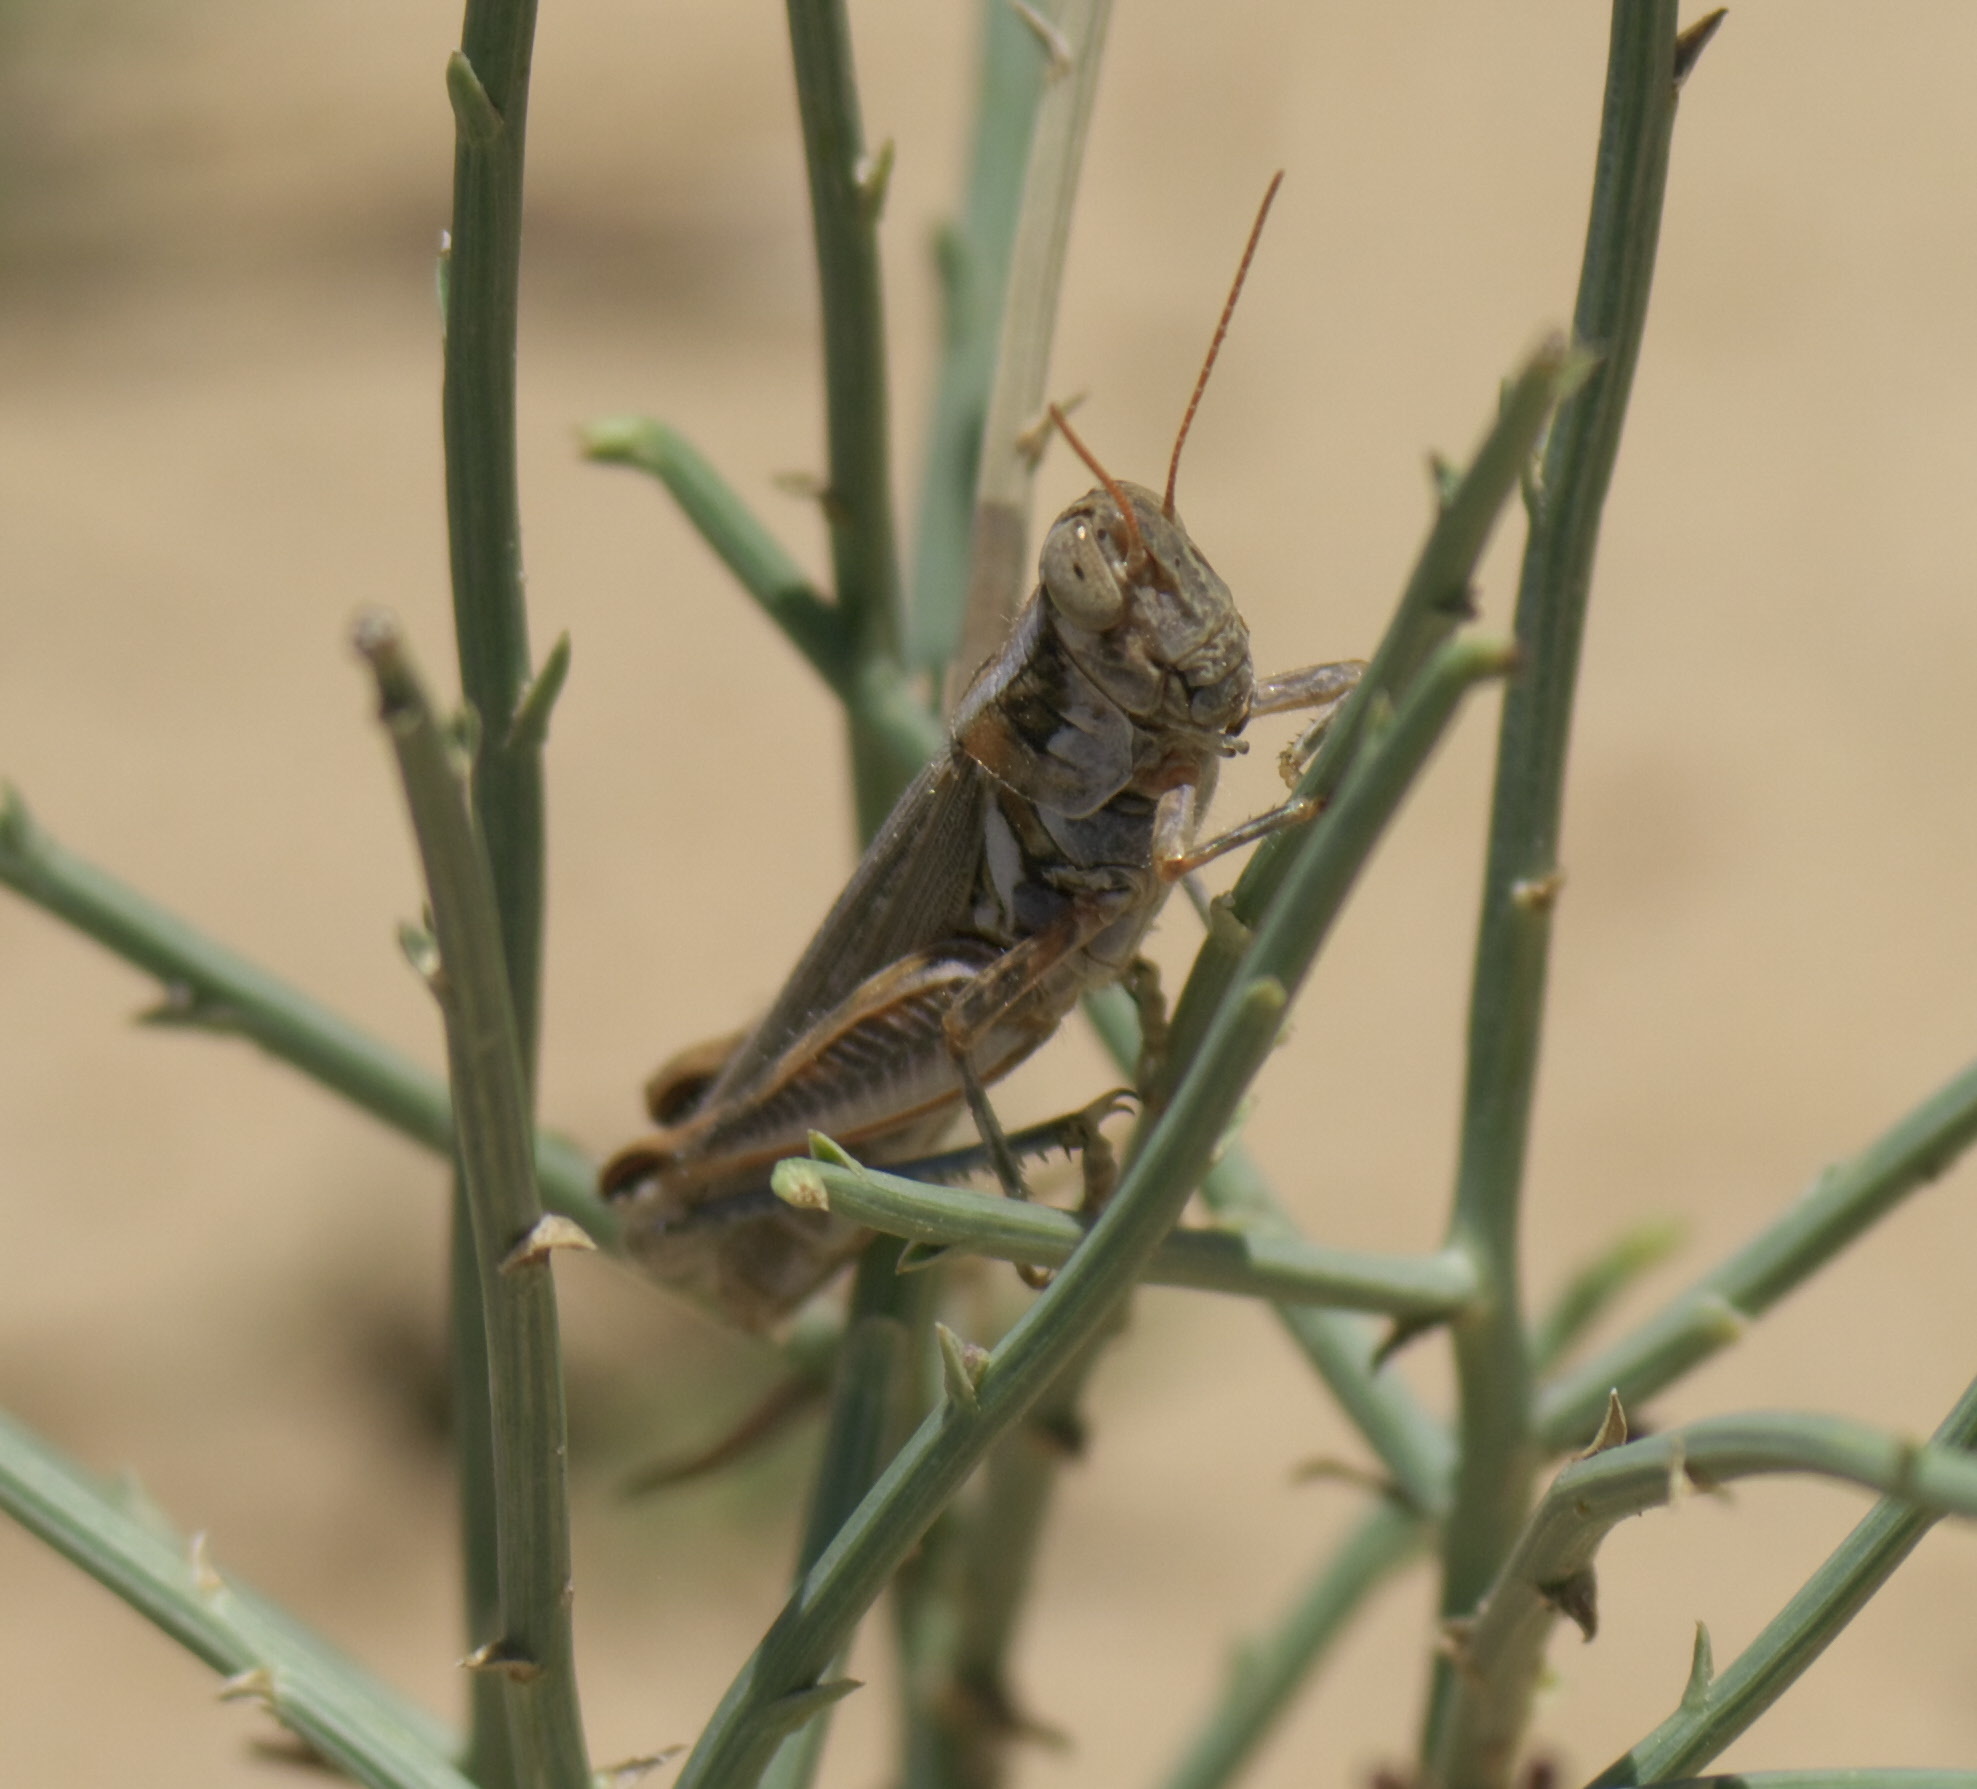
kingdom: Animalia
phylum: Arthropoda
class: Insecta
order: Orthoptera
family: Acrididae
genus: Melanoplus
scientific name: Melanoplus bowditchi
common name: Sagebrush grasshopper
